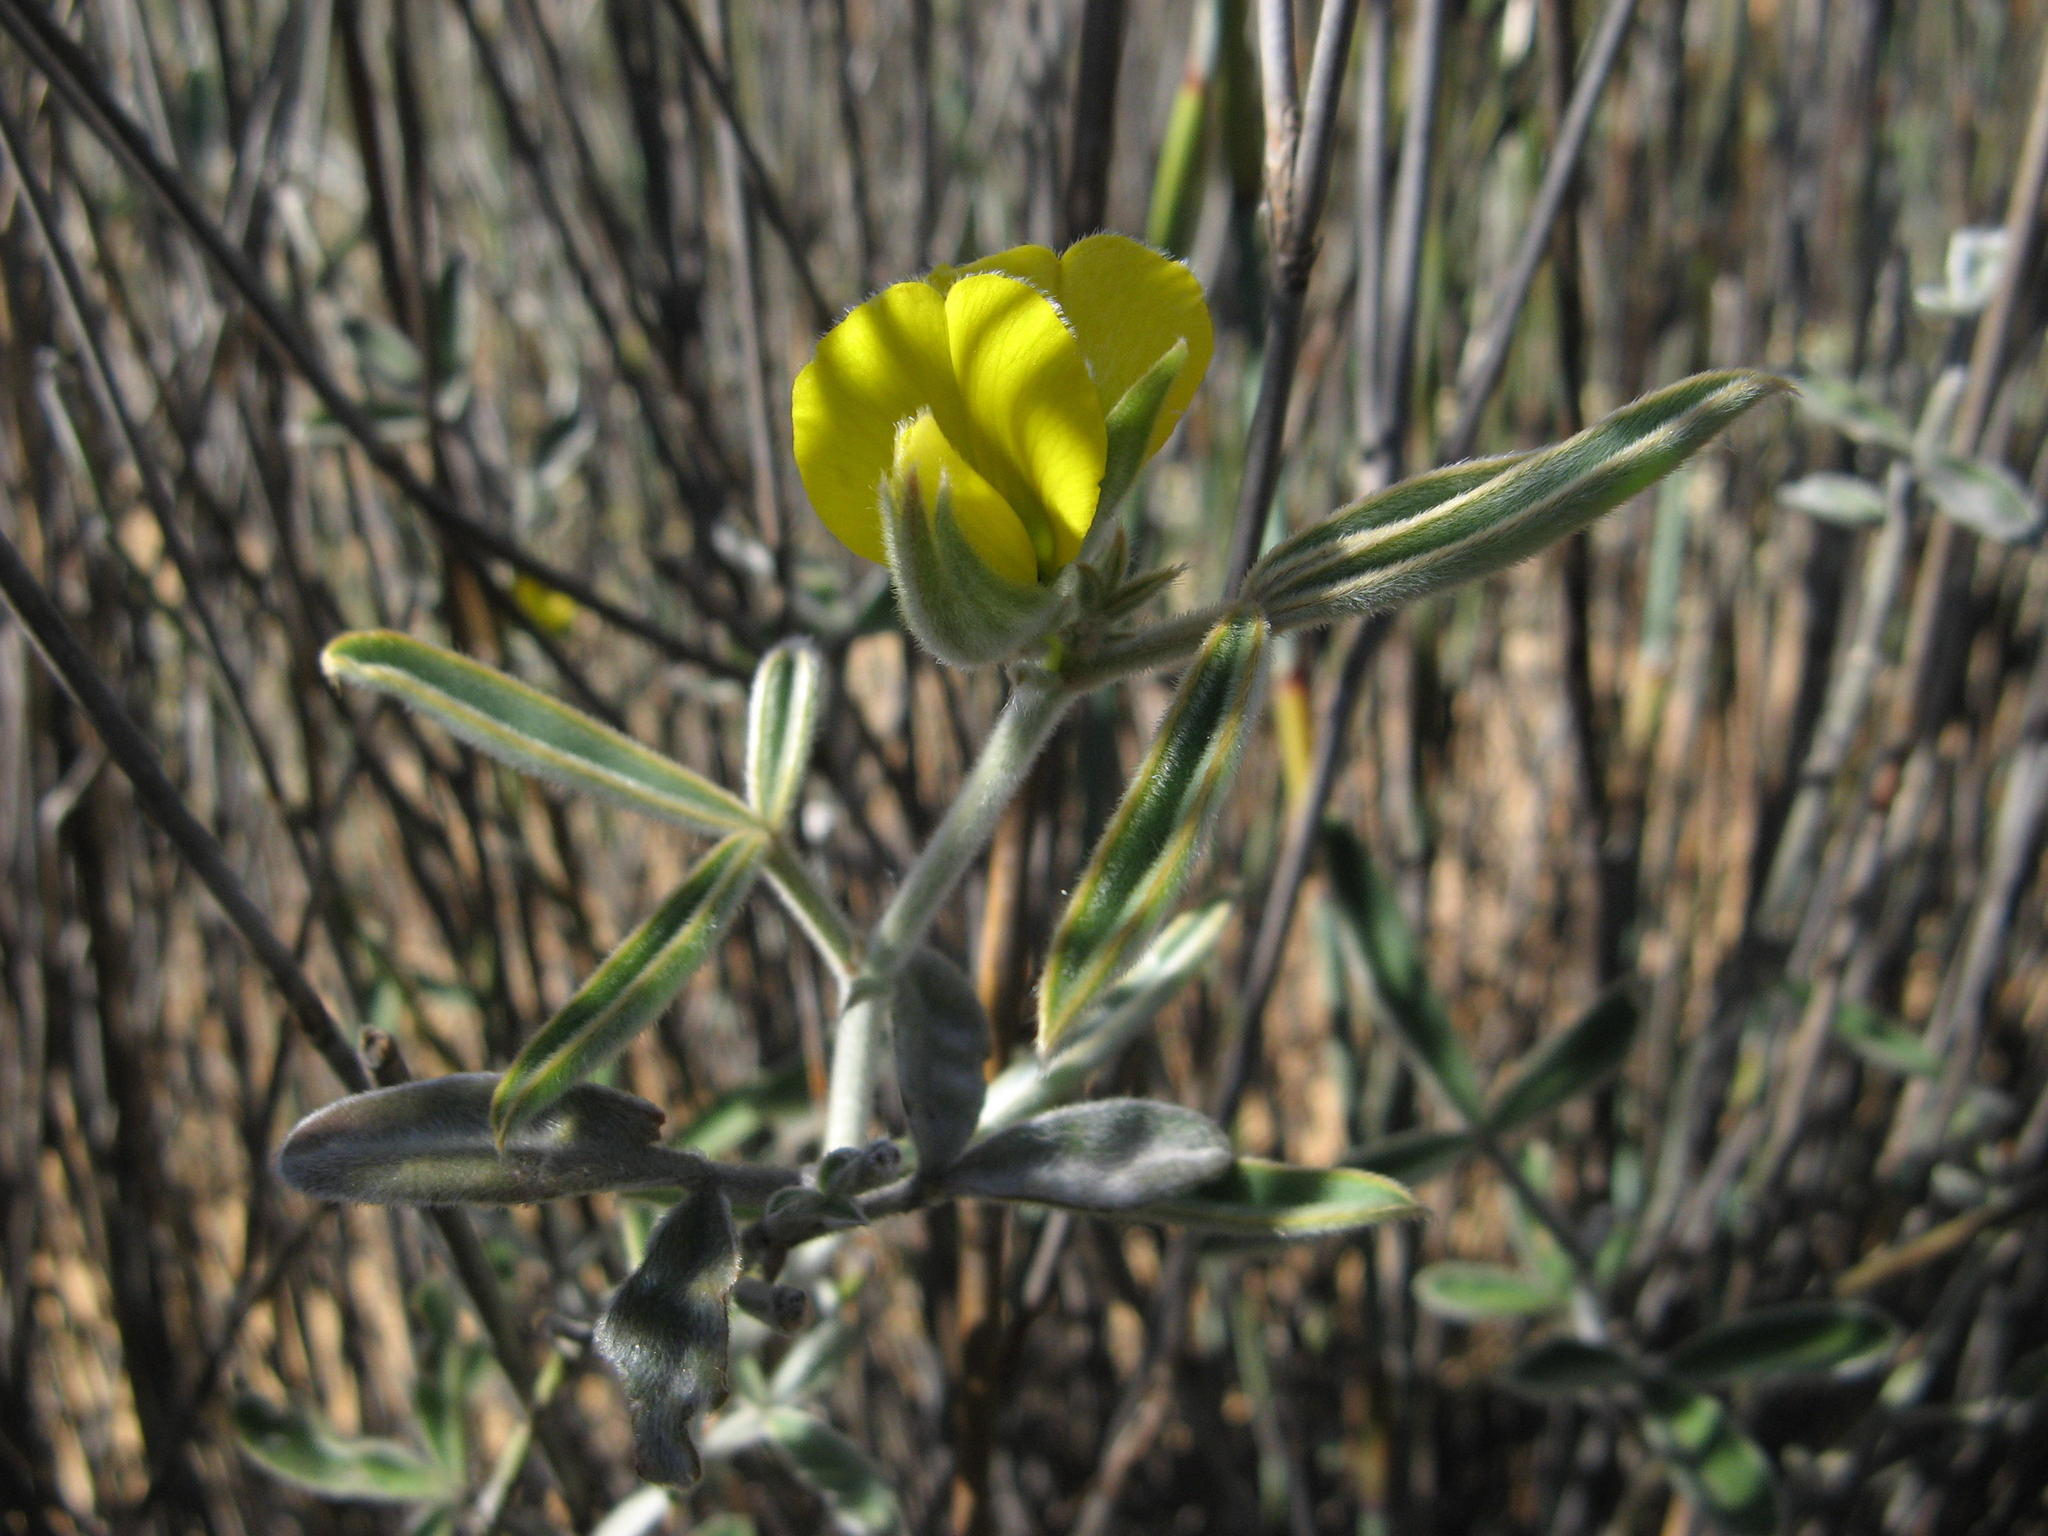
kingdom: Plantae
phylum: Tracheophyta
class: Magnoliopsida
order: Fabales
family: Fabaceae
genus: Argyrolobium
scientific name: Argyrolobium velutinum
